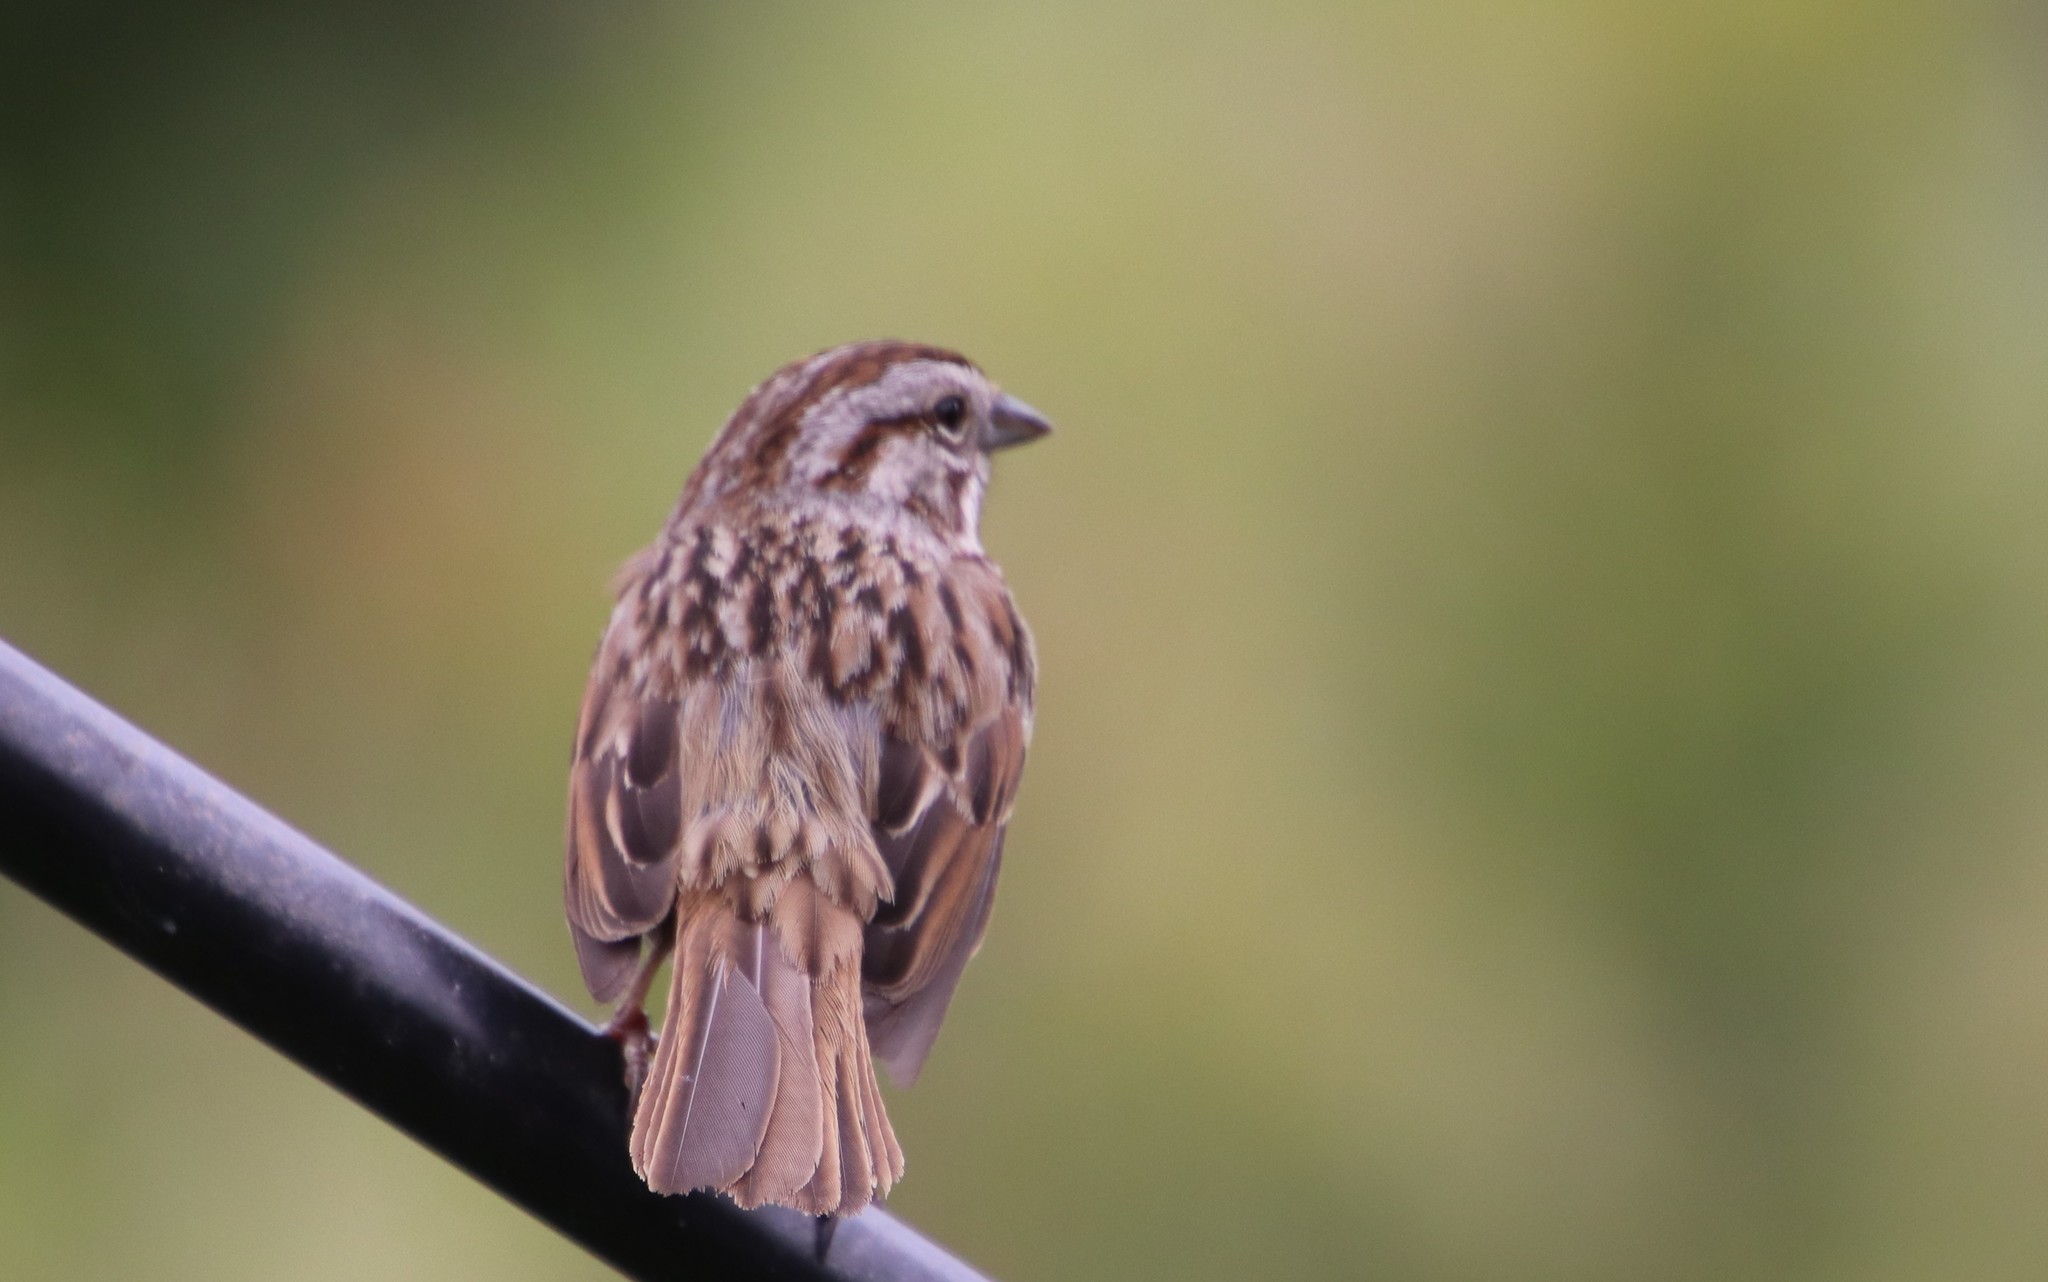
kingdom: Animalia
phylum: Chordata
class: Aves
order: Passeriformes
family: Passerellidae
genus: Melospiza
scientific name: Melospiza melodia
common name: Song sparrow
